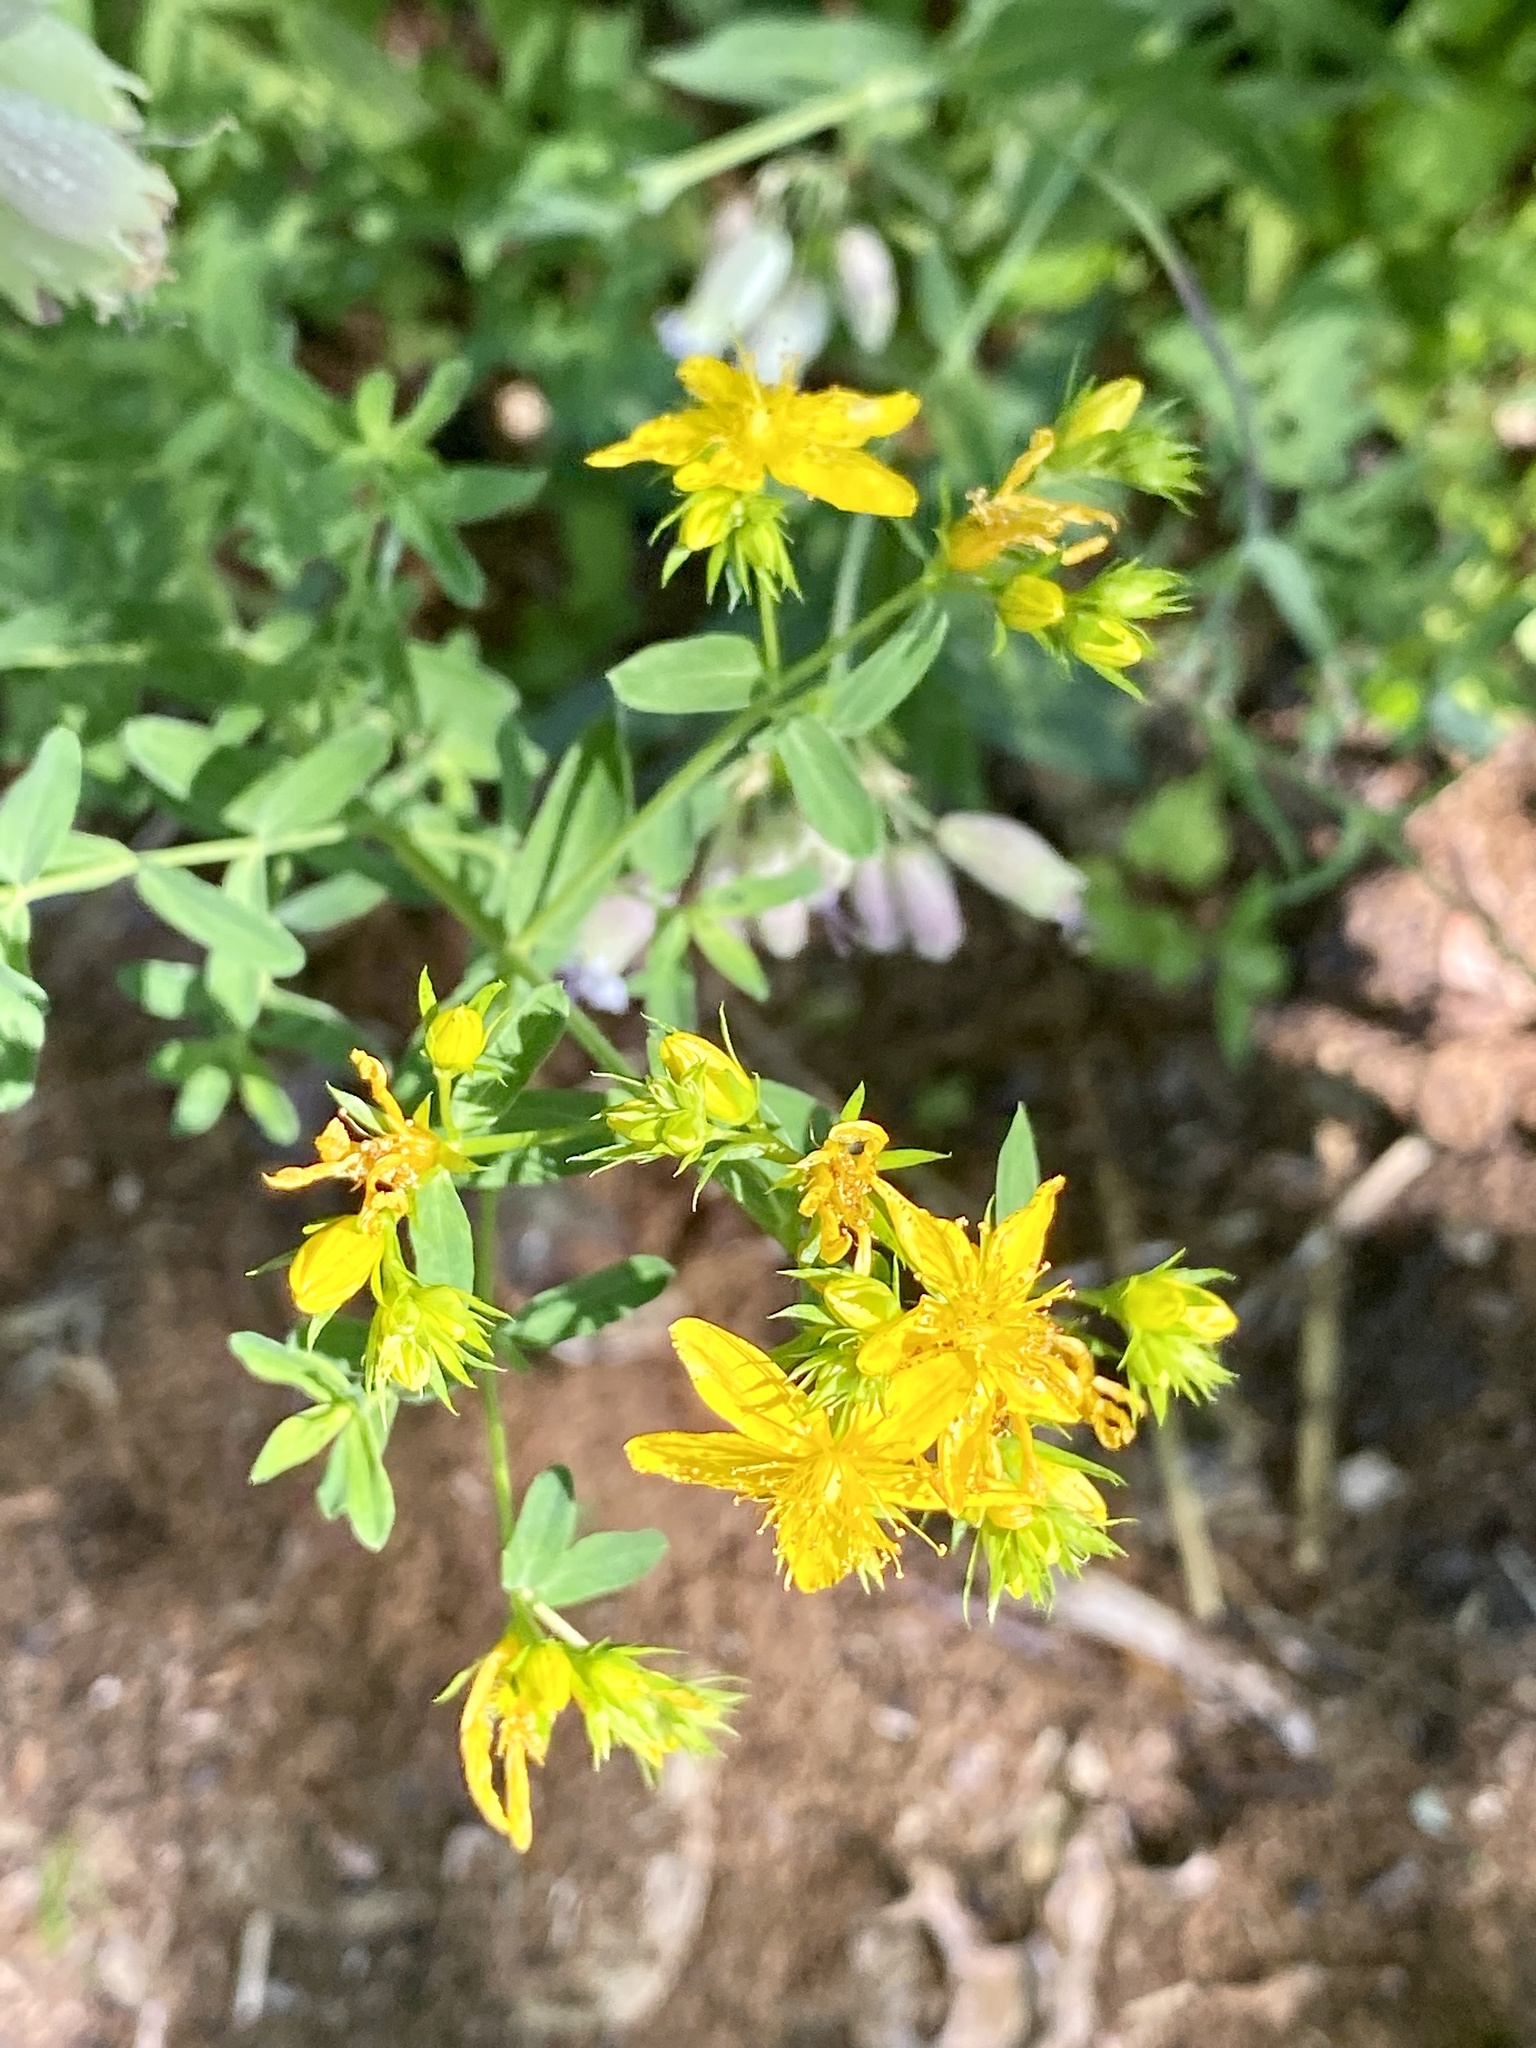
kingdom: Plantae
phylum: Tracheophyta
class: Magnoliopsida
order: Malpighiales
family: Hypericaceae
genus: Hypericum
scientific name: Hypericum perforatum
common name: Common st. johnswort
